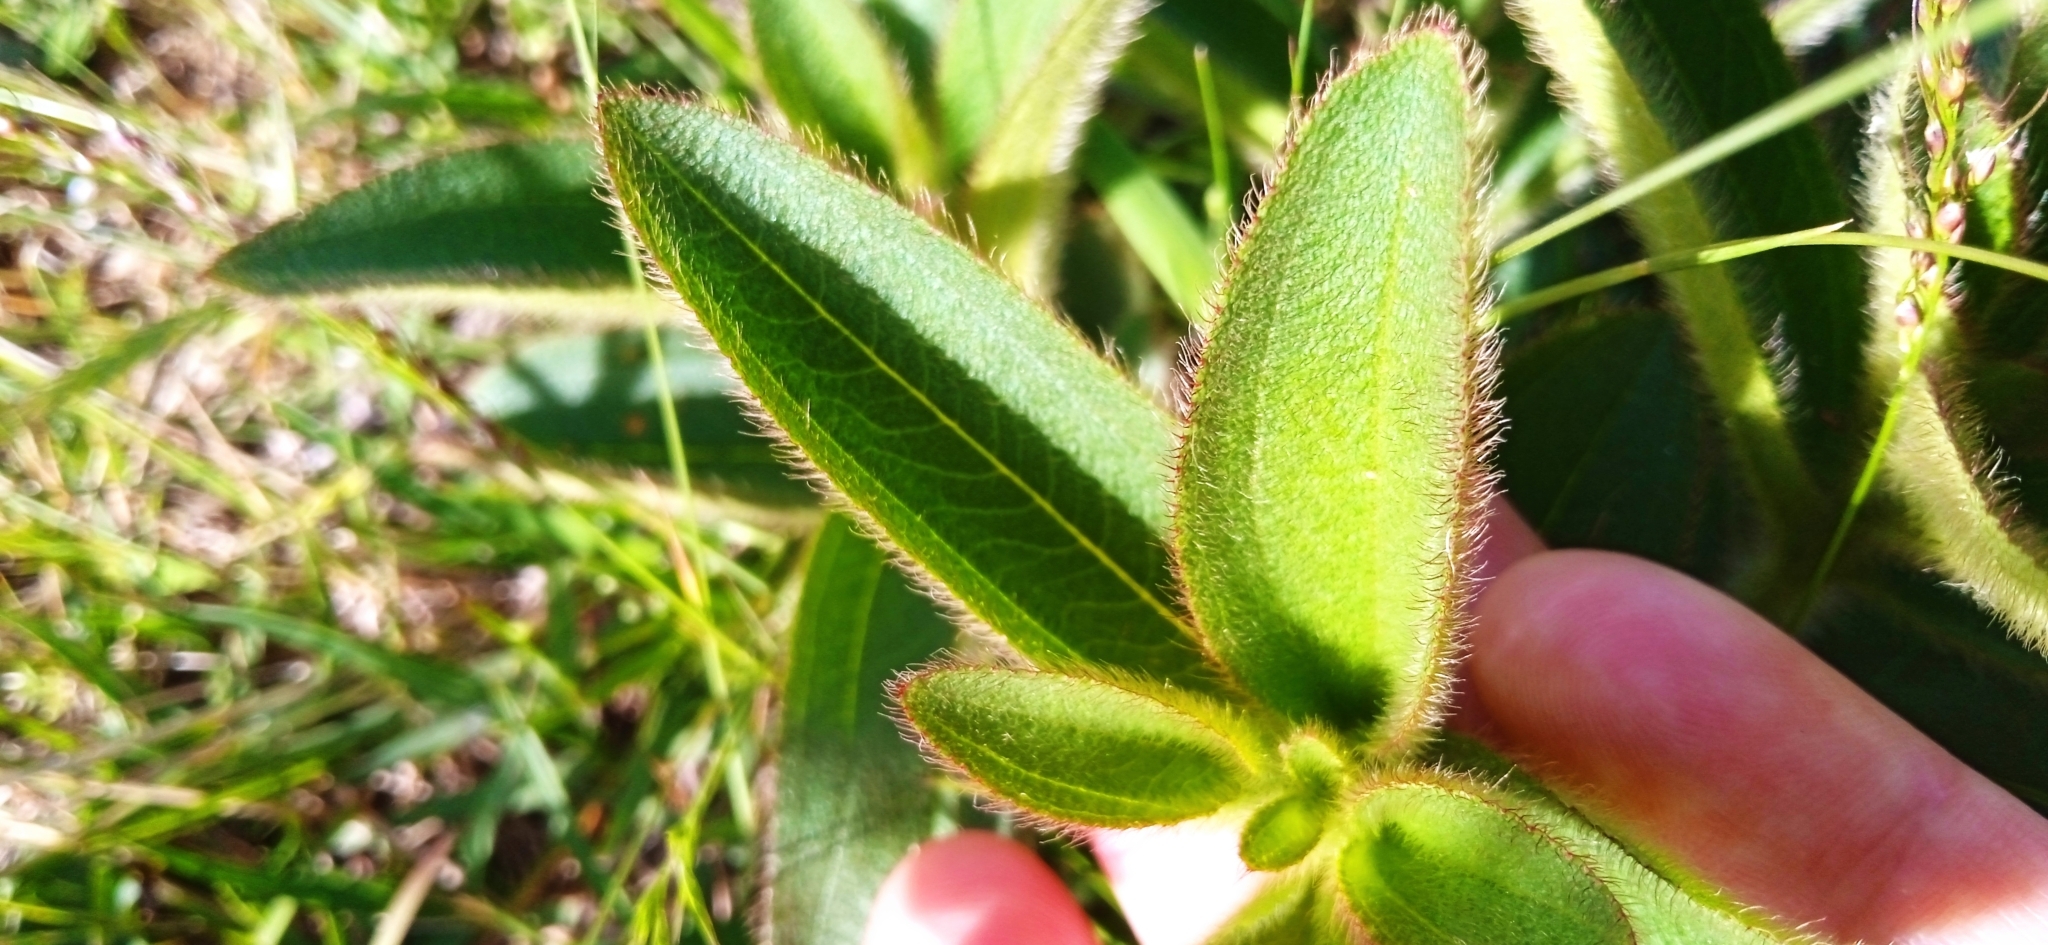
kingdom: Plantae
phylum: Tracheophyta
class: Magnoliopsida
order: Myrtales
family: Melastomataceae
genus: Chaetogastra
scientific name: Chaetogastra gracilis
